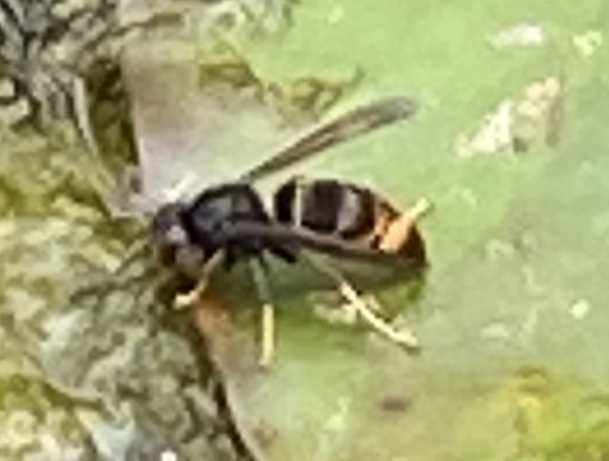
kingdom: Animalia
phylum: Arthropoda
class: Insecta
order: Hymenoptera
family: Vespidae
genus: Vespa
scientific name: Vespa velutina
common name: Asian hornet
